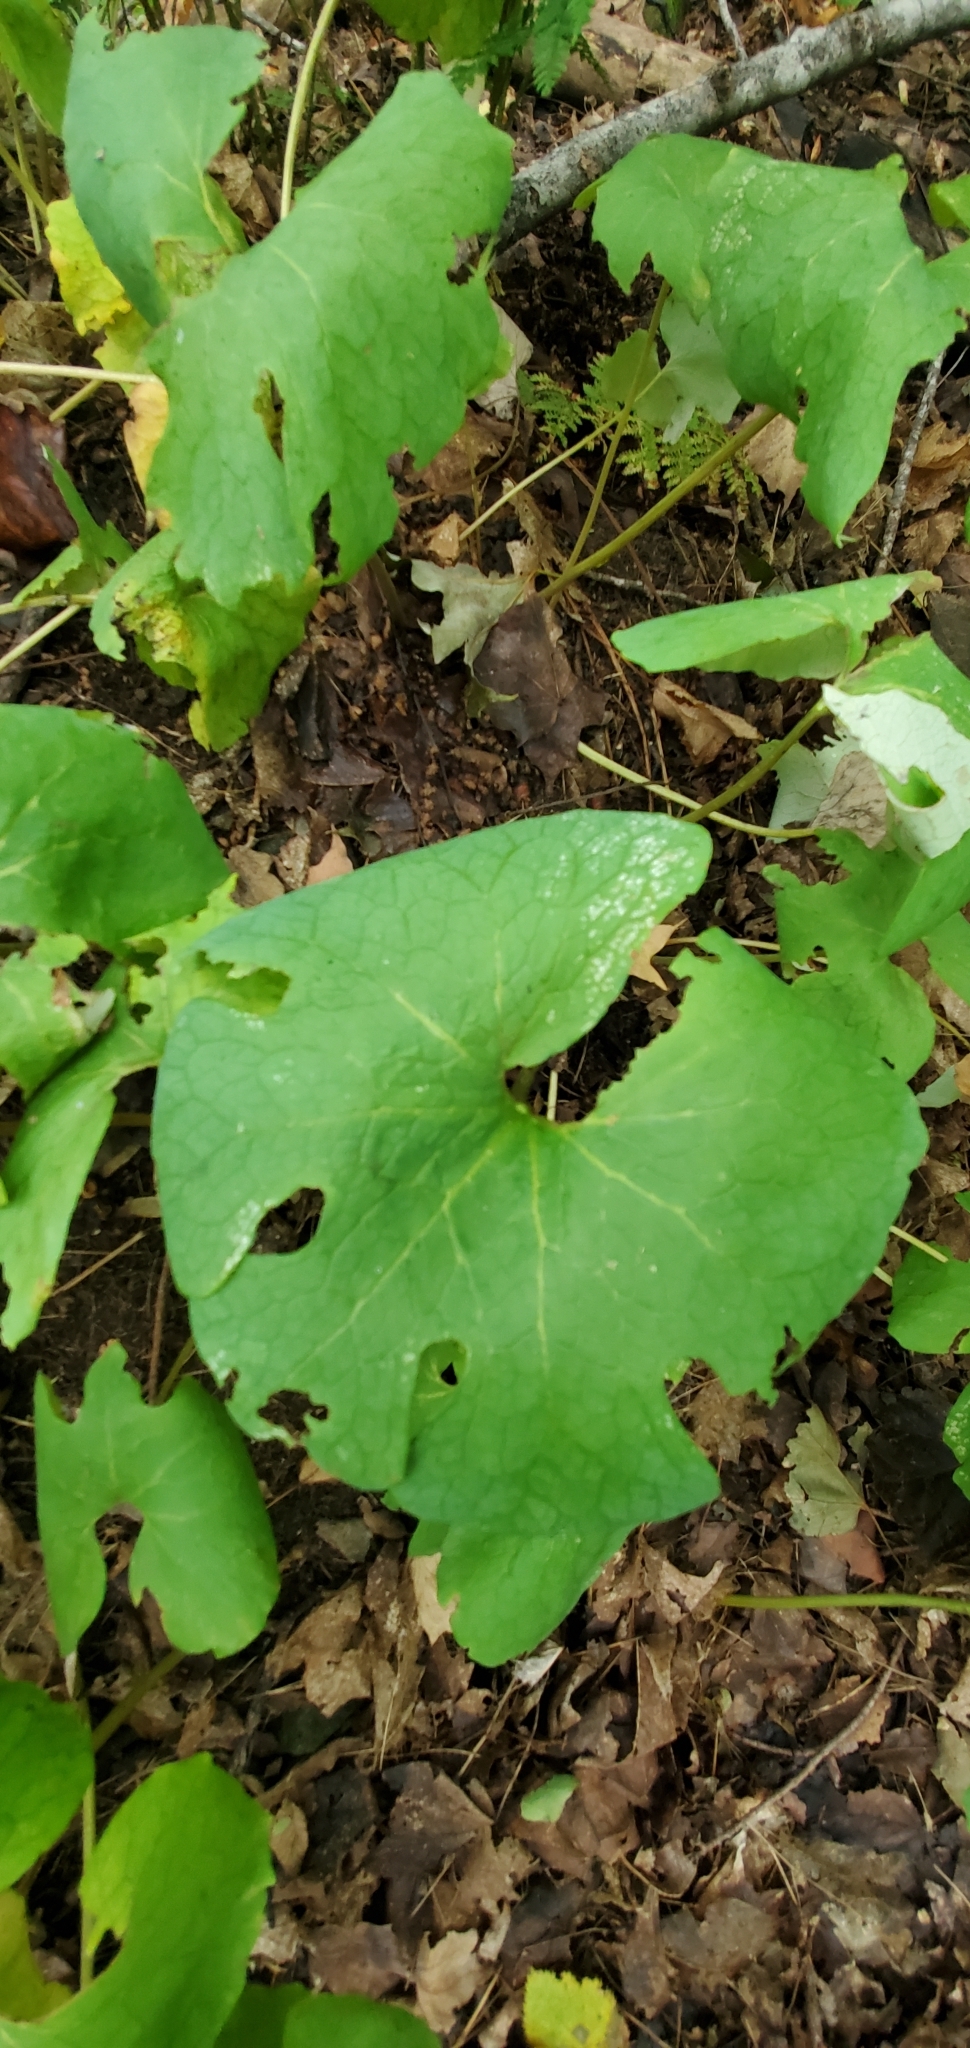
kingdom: Plantae
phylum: Tracheophyta
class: Magnoliopsida
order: Ranunculales
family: Papaveraceae
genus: Sanguinaria
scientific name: Sanguinaria canadensis
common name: Bloodroot
